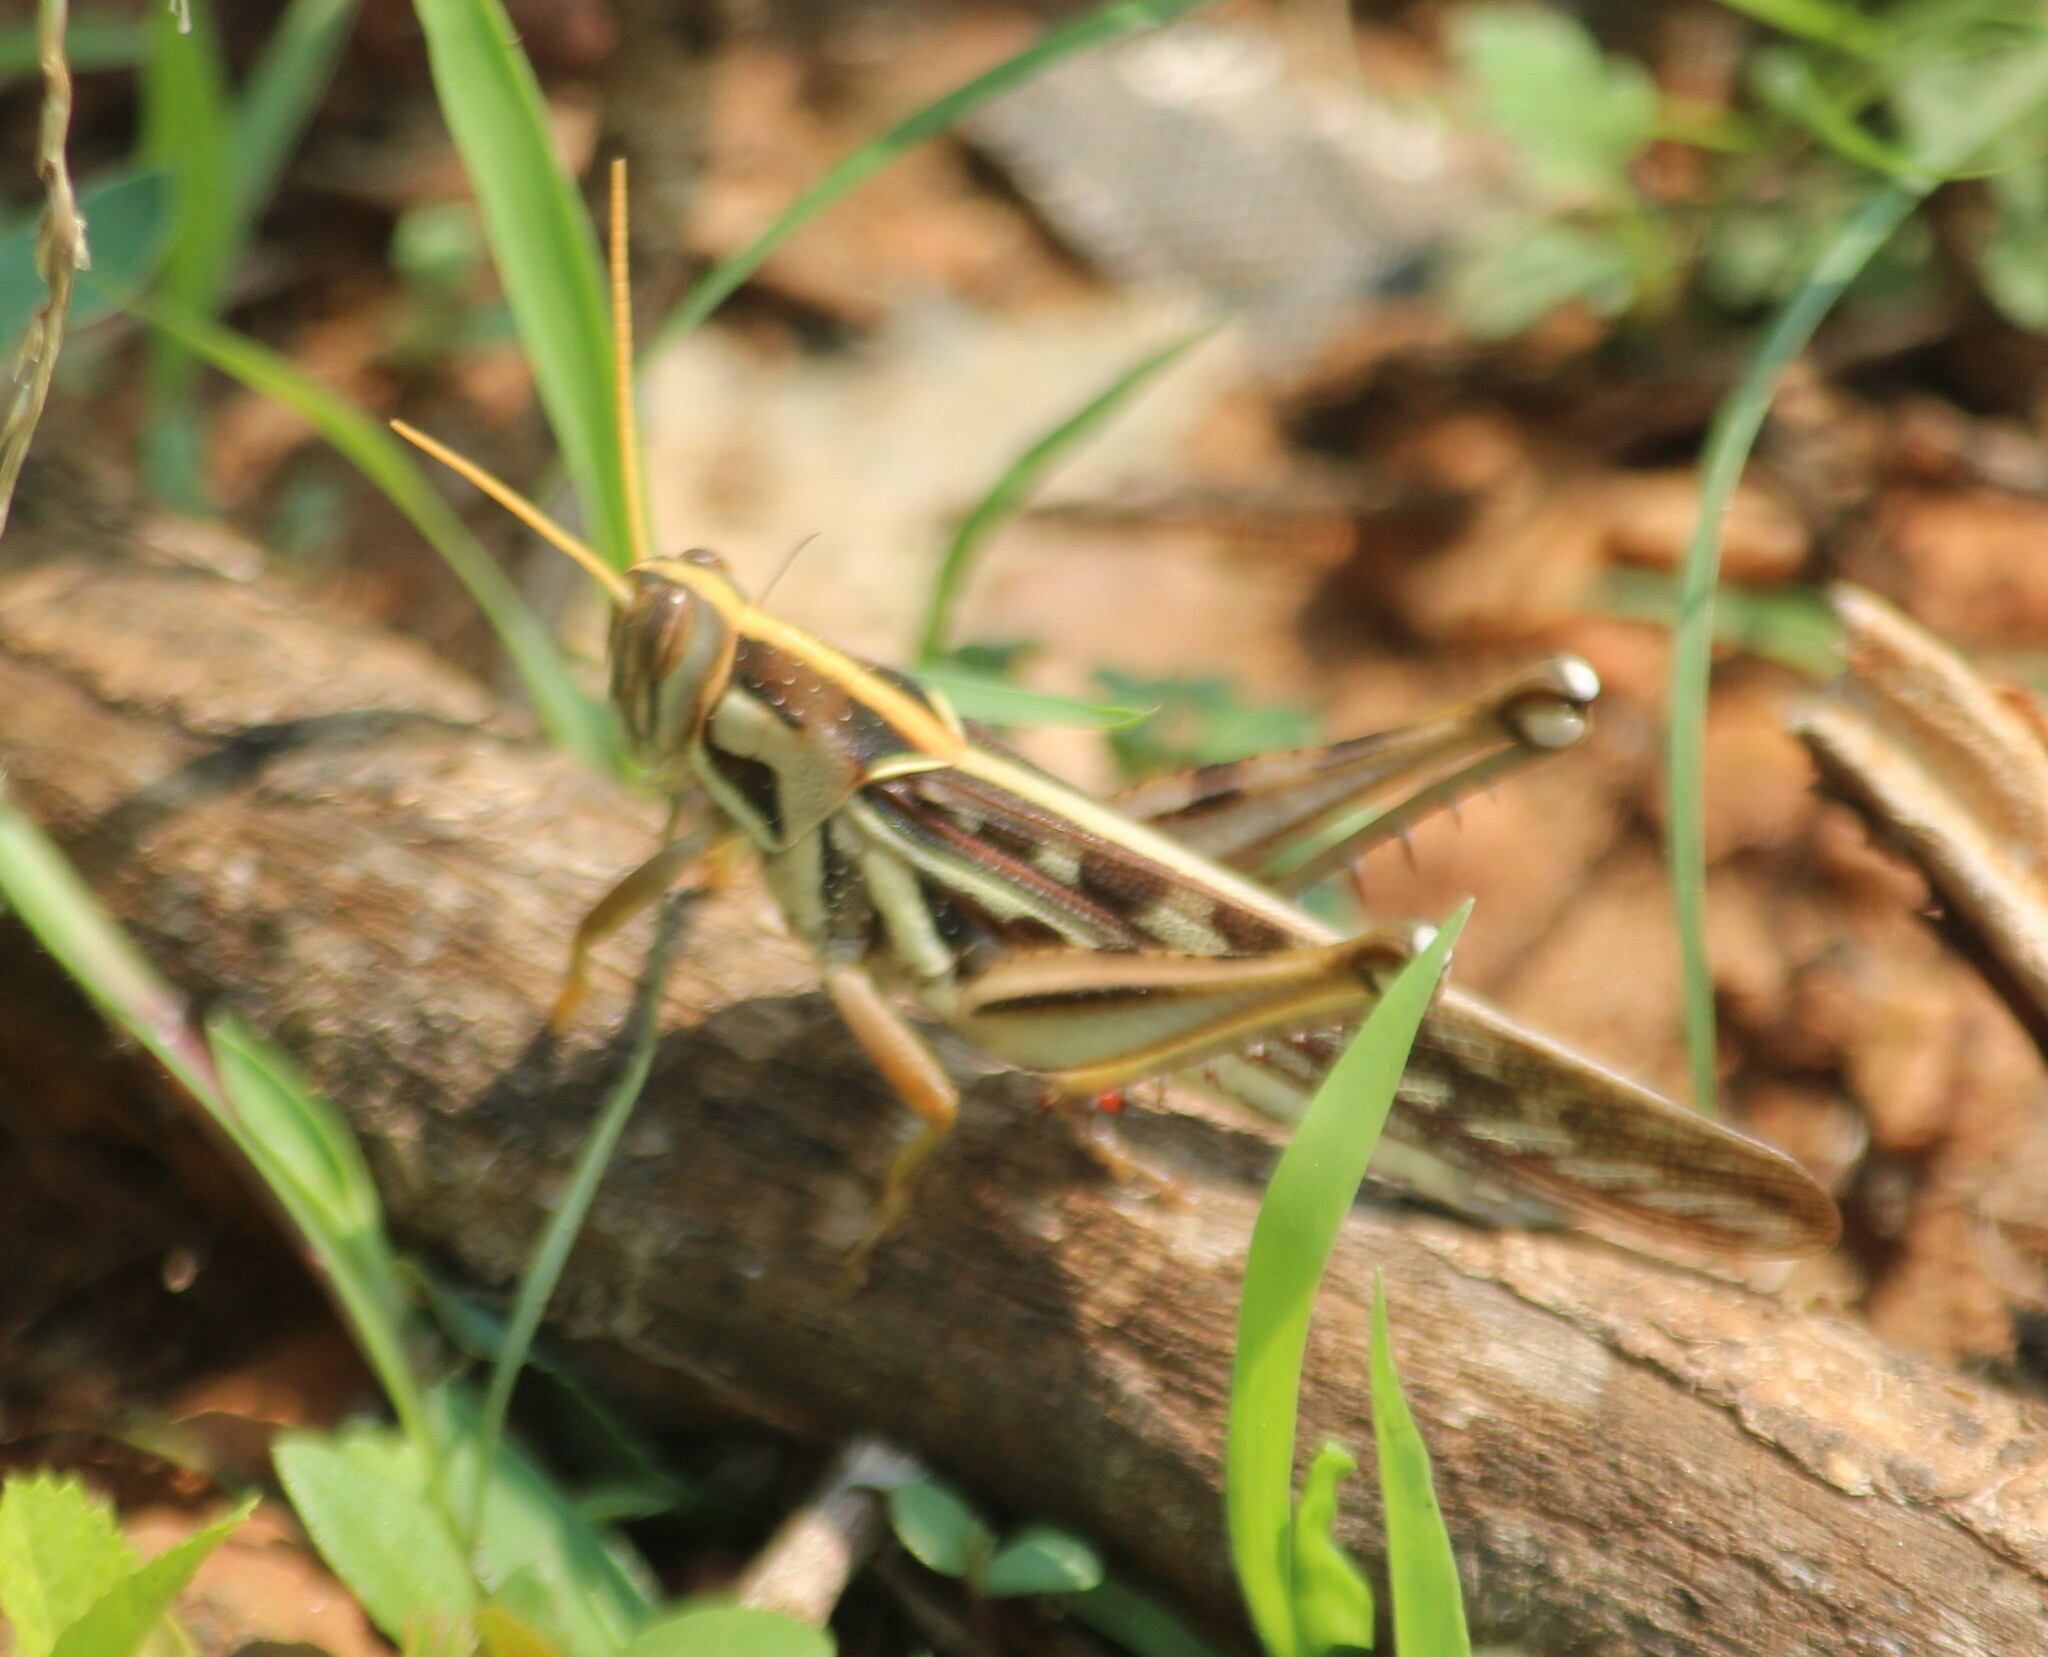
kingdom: Animalia
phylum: Arthropoda
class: Insecta
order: Orthoptera
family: Acrididae
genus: Cyrtacanthacris
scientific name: Cyrtacanthacris tatarica
